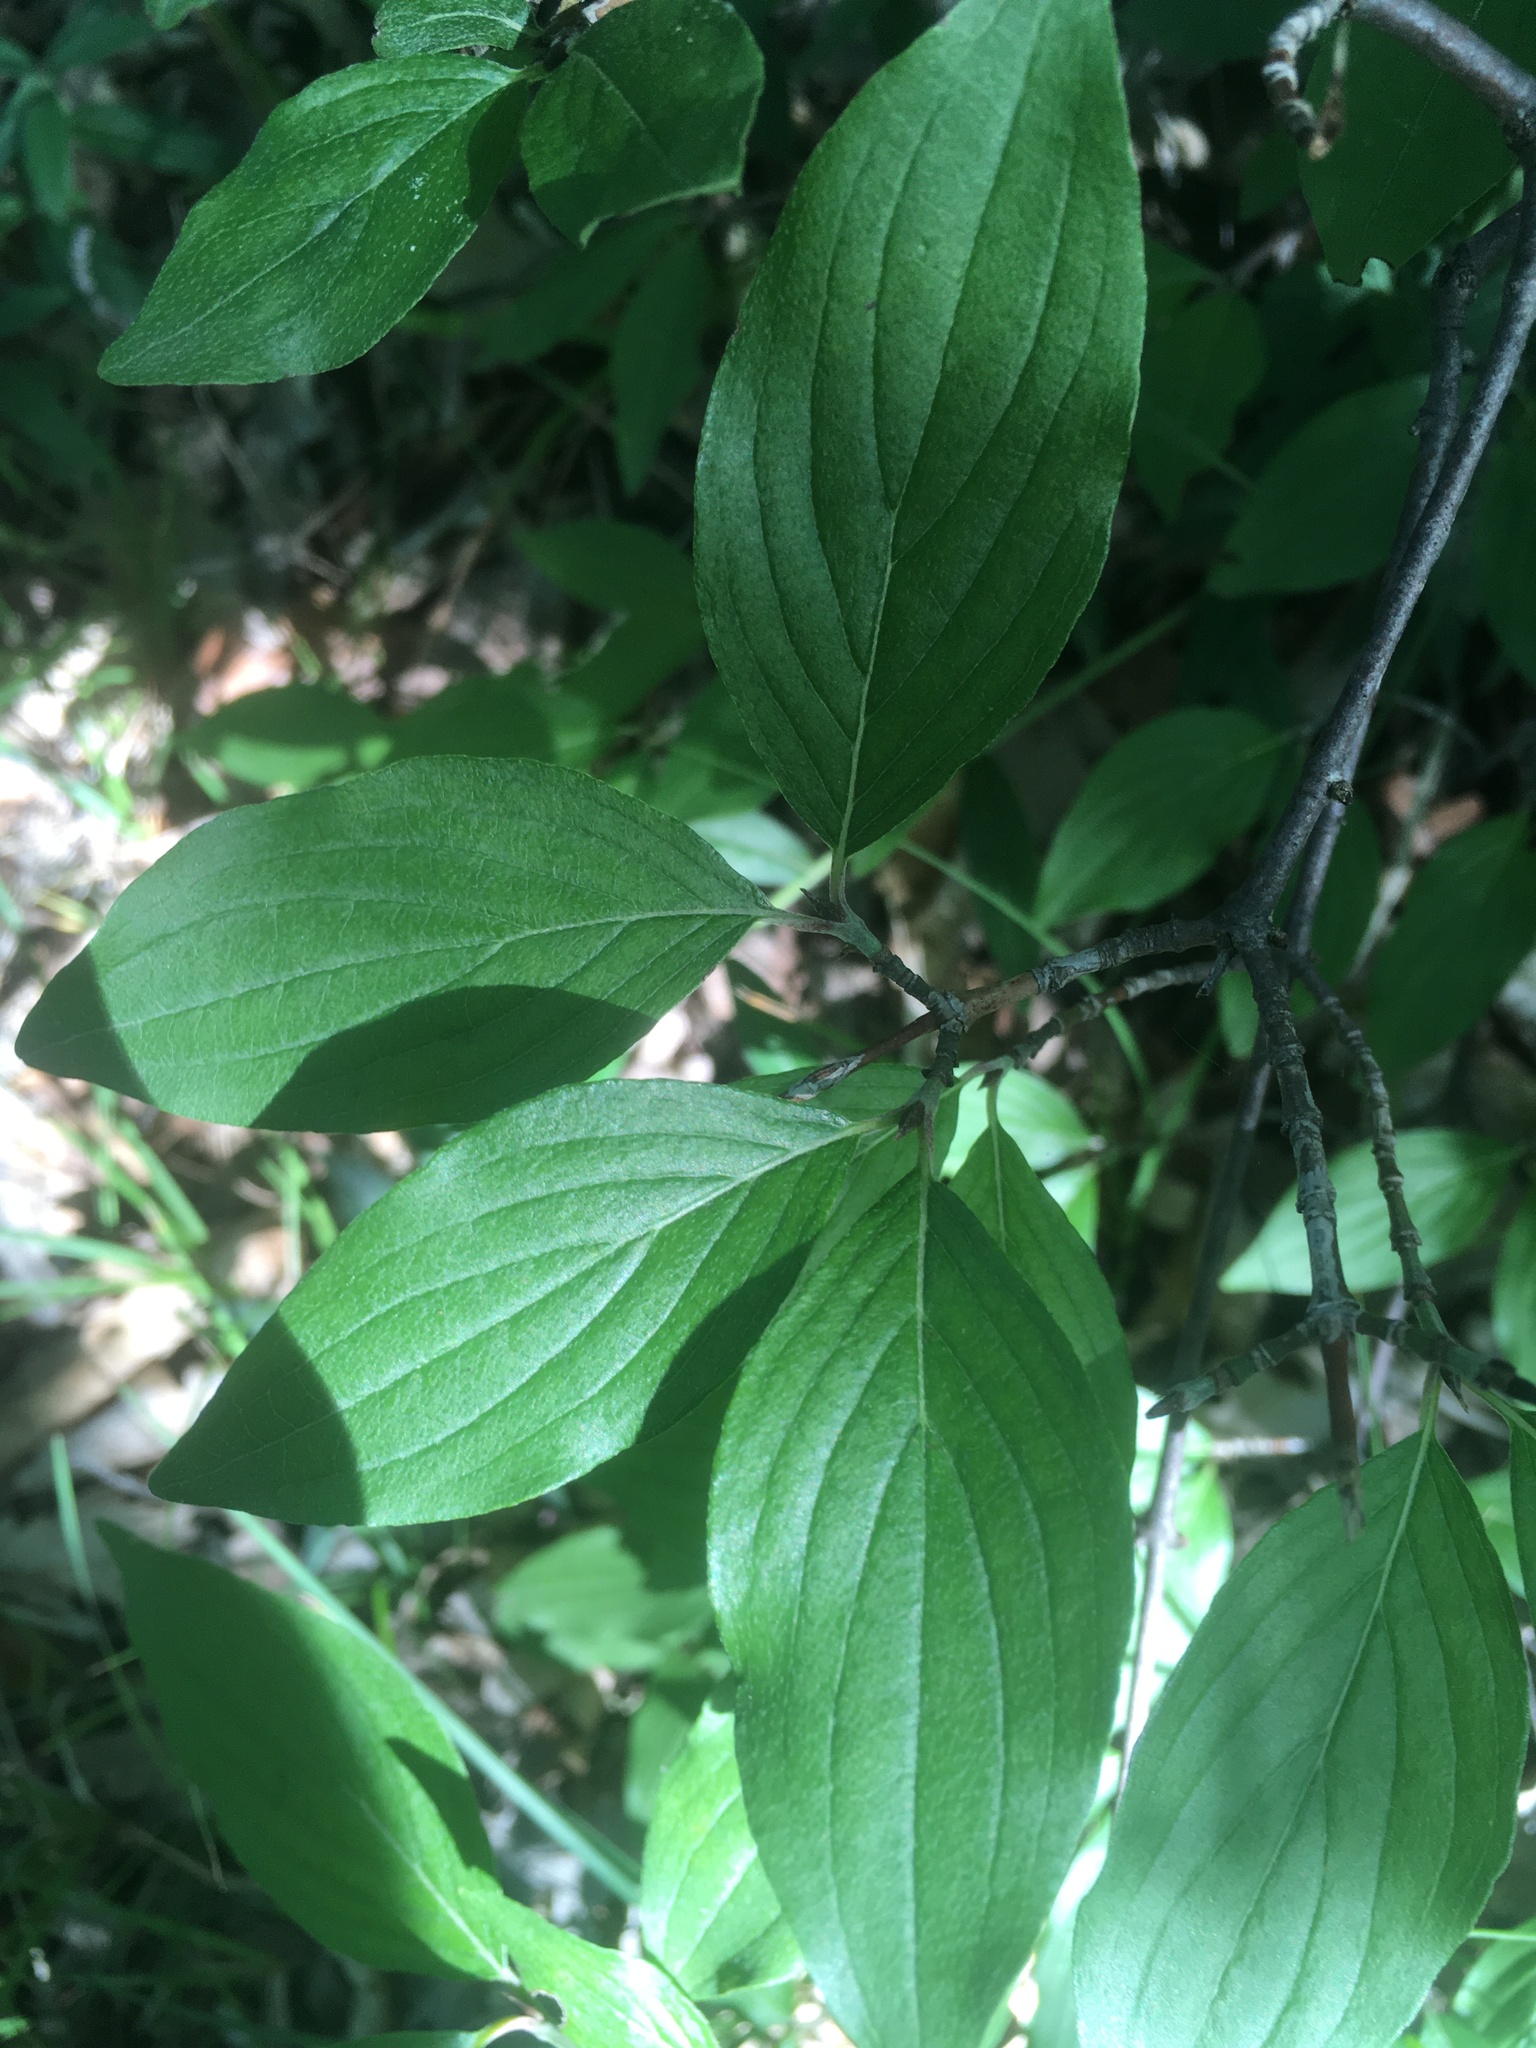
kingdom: Plantae
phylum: Tracheophyta
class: Magnoliopsida
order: Cornales
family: Cornaceae
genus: Cornus
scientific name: Cornus mas
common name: Cornelian-cherry
